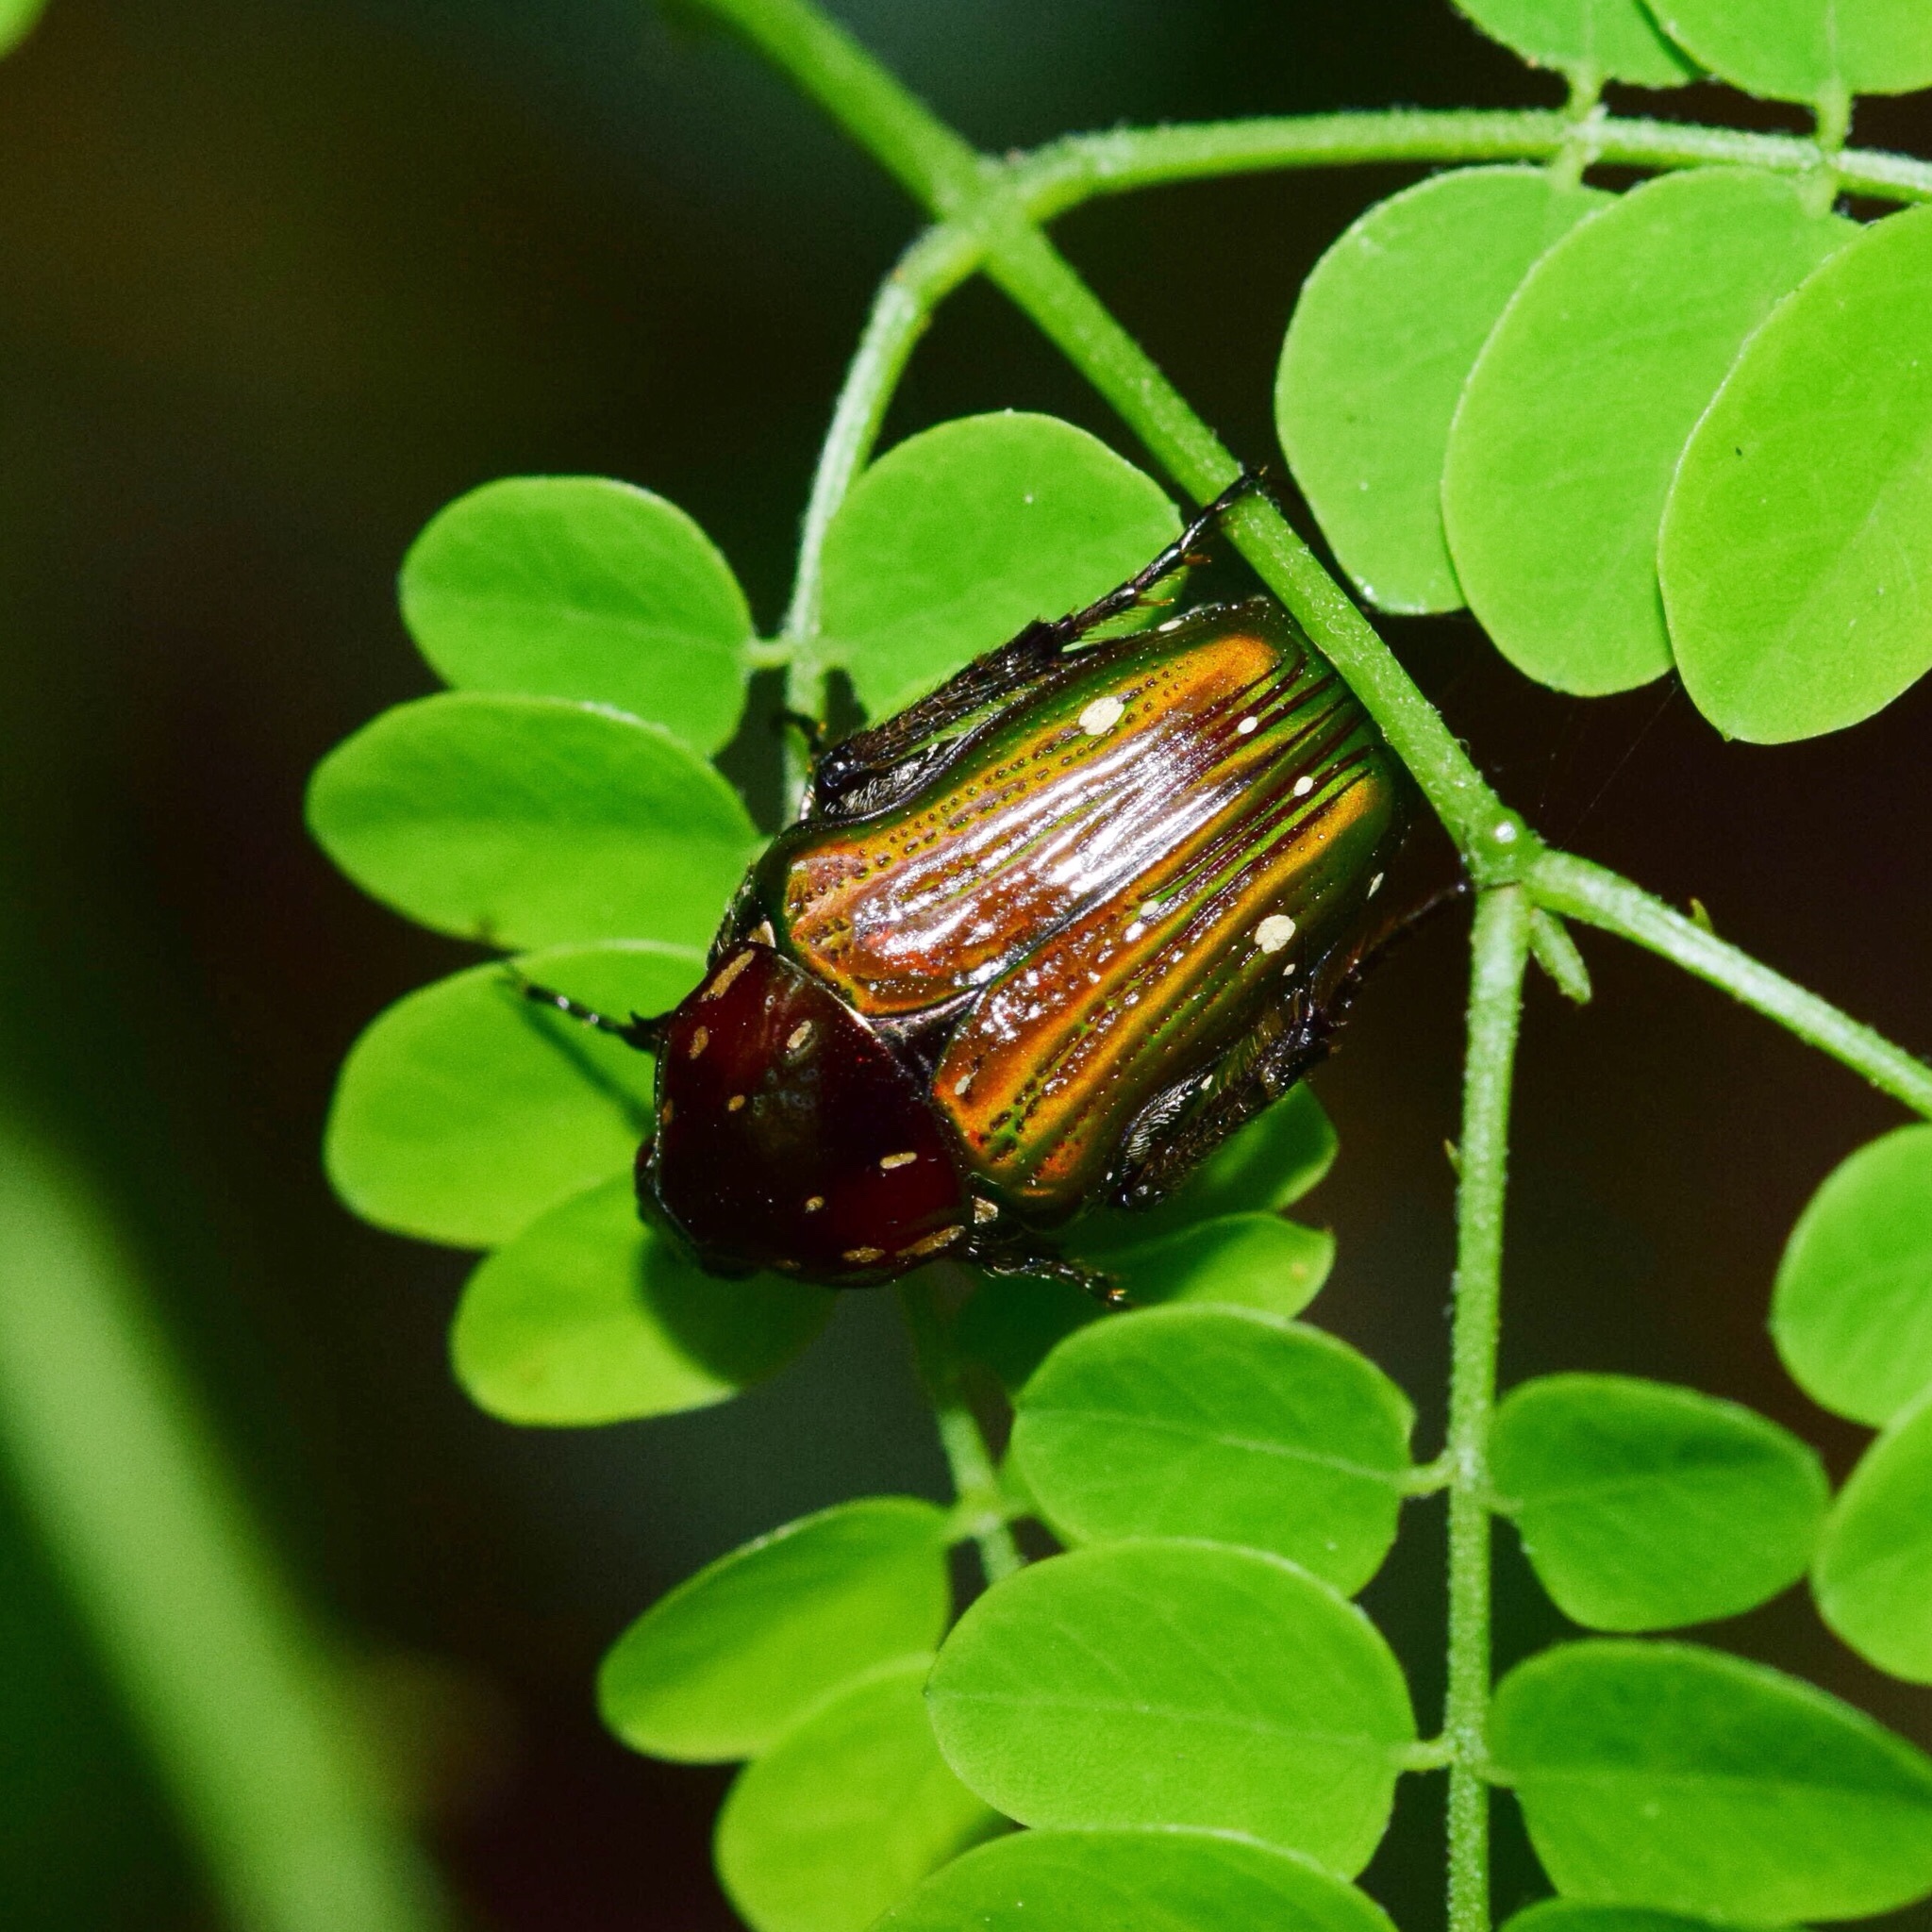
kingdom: Animalia
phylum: Arthropoda
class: Insecta
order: Coleoptera
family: Scarabaeidae
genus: Leucocelis
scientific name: Leucocelis aeneicollis
